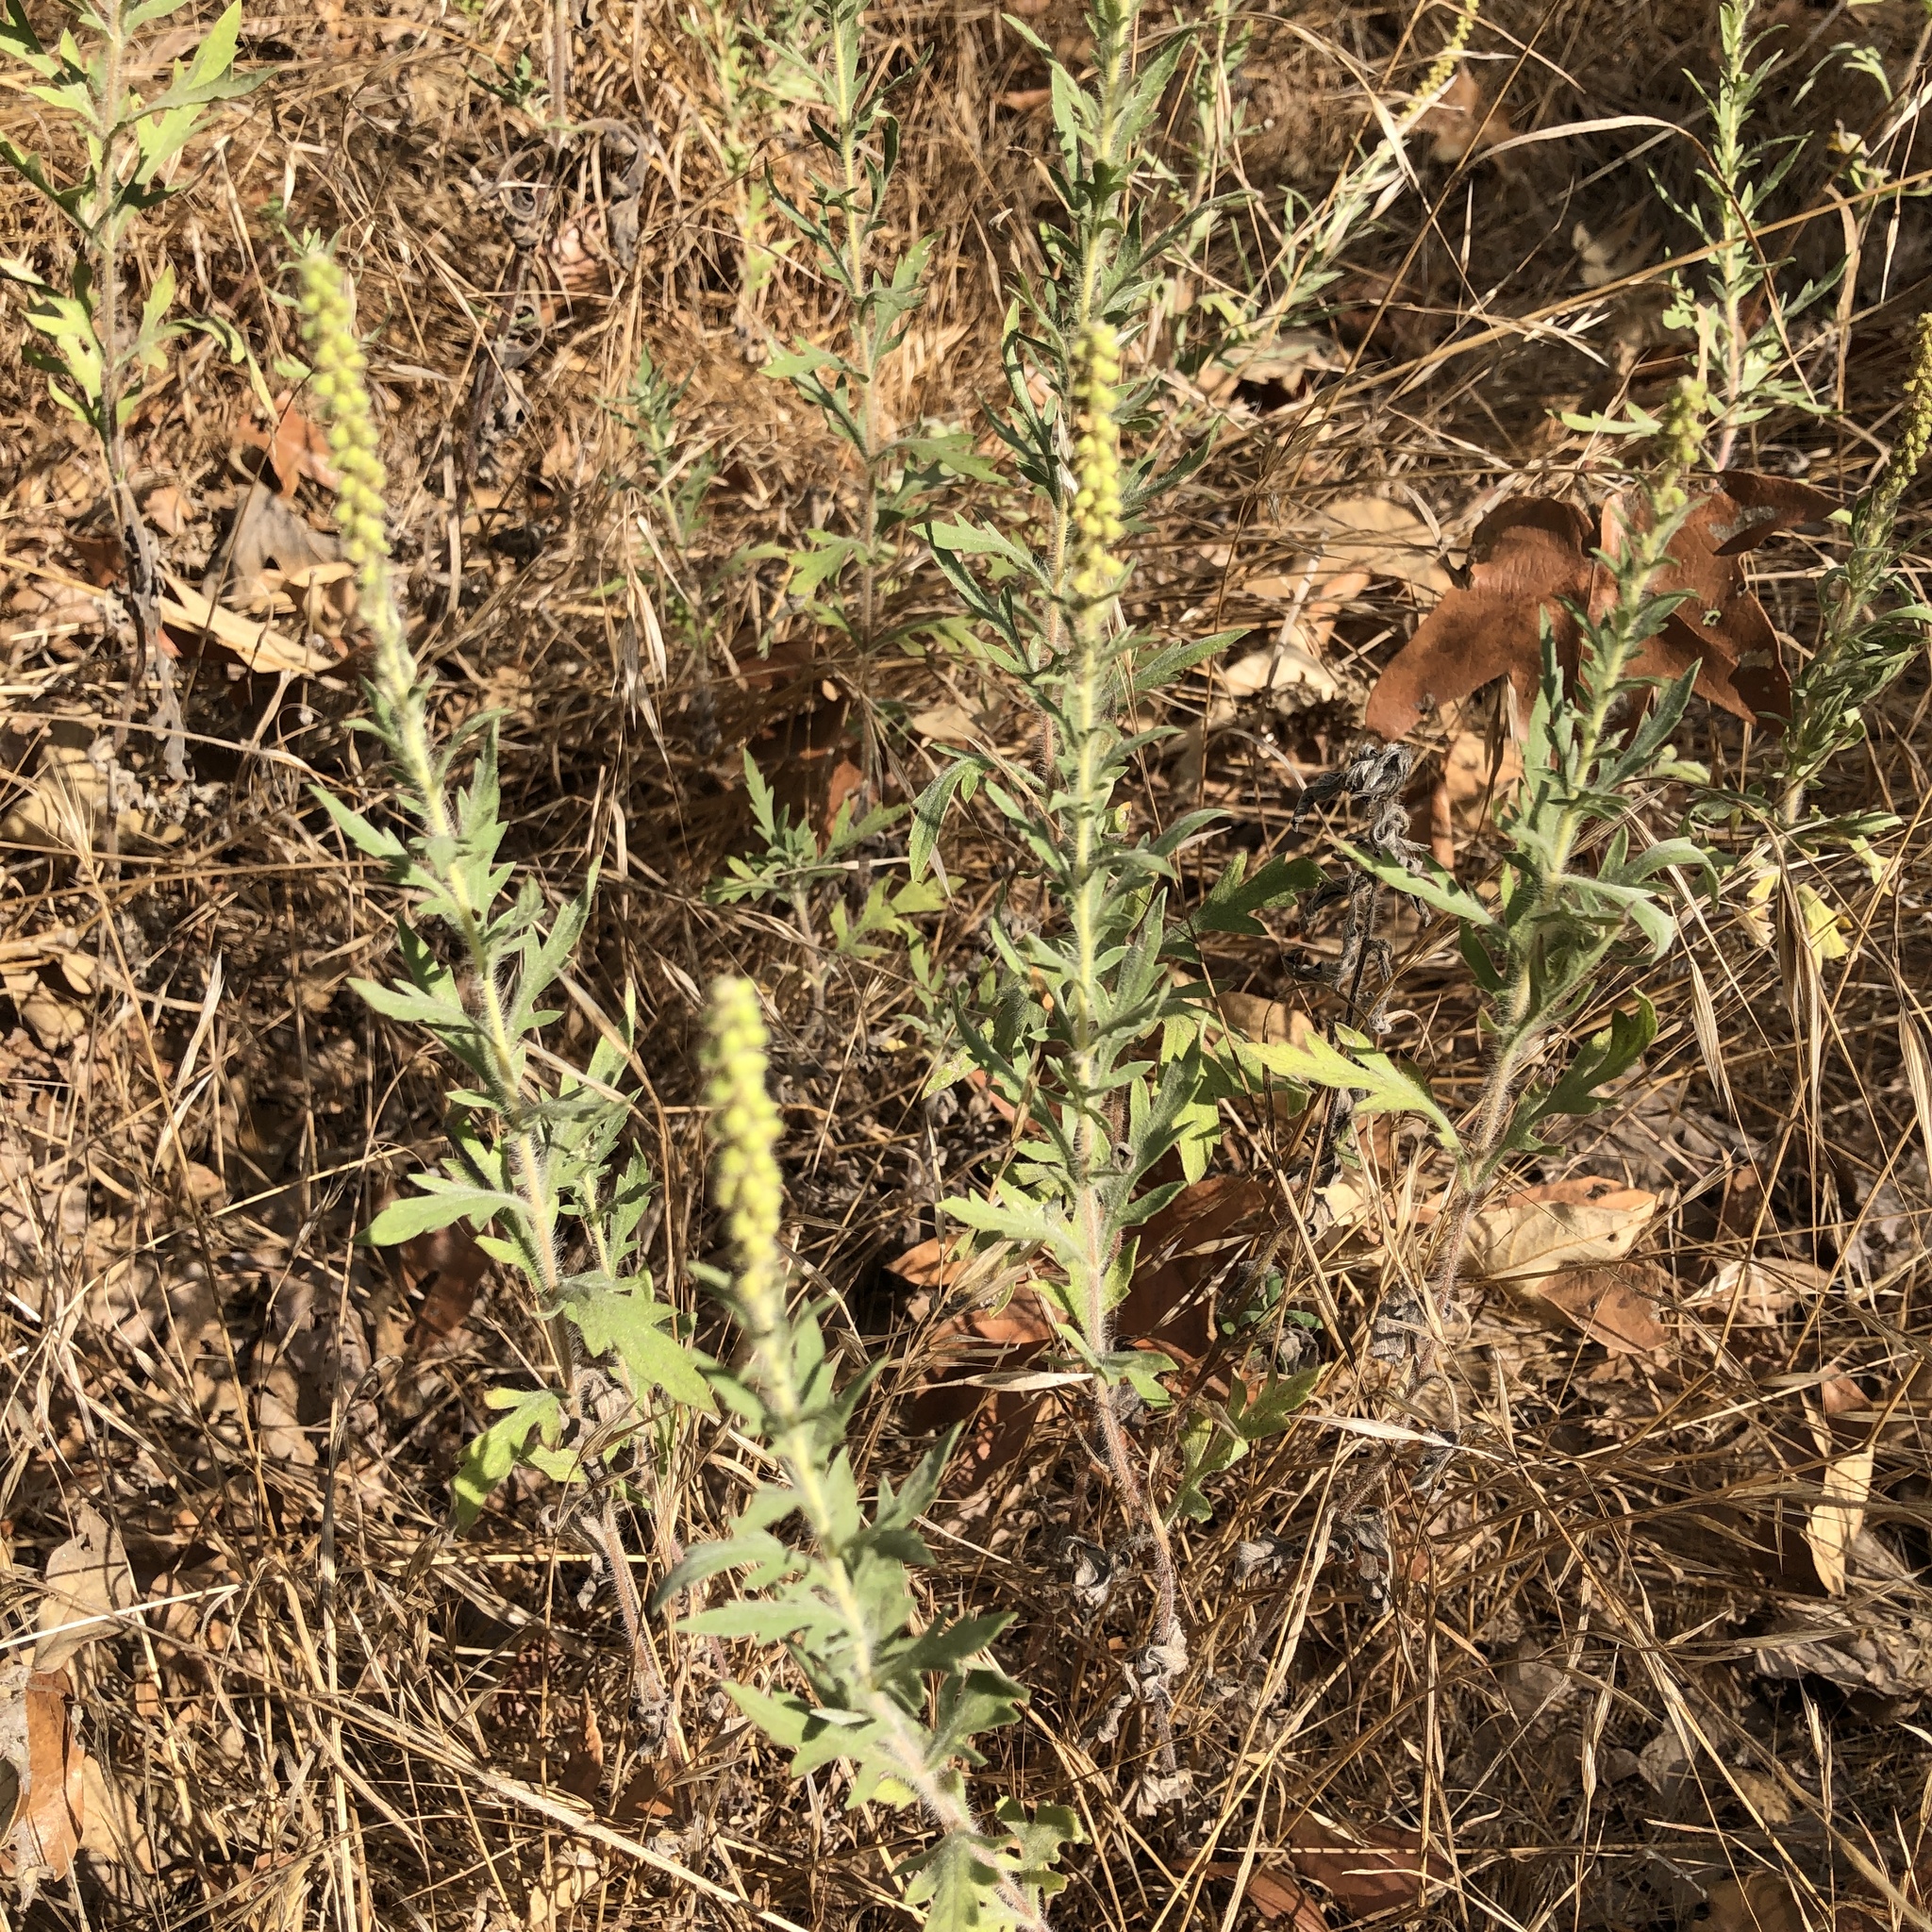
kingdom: Plantae
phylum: Tracheophyta
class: Magnoliopsida
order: Asterales
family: Asteraceae
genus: Ambrosia
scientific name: Ambrosia psilostachya
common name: Perennial ragweed
